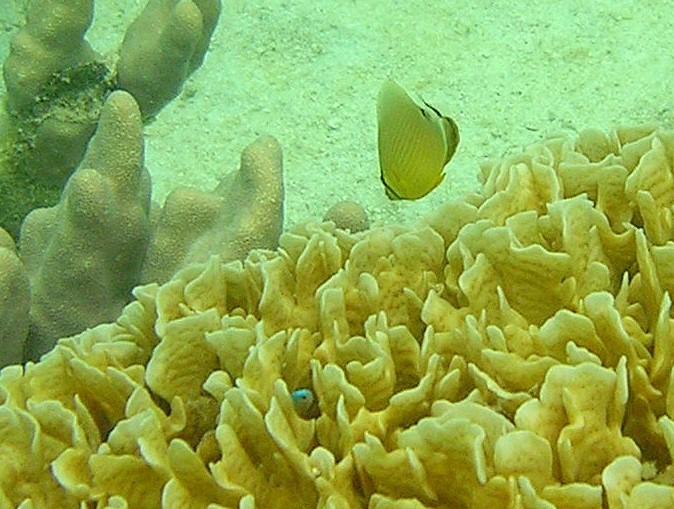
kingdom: Animalia
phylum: Chordata
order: Perciformes
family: Chaetodontidae
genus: Chaetodon
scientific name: Chaetodon lunulatus
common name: Redfin butterflyfish
